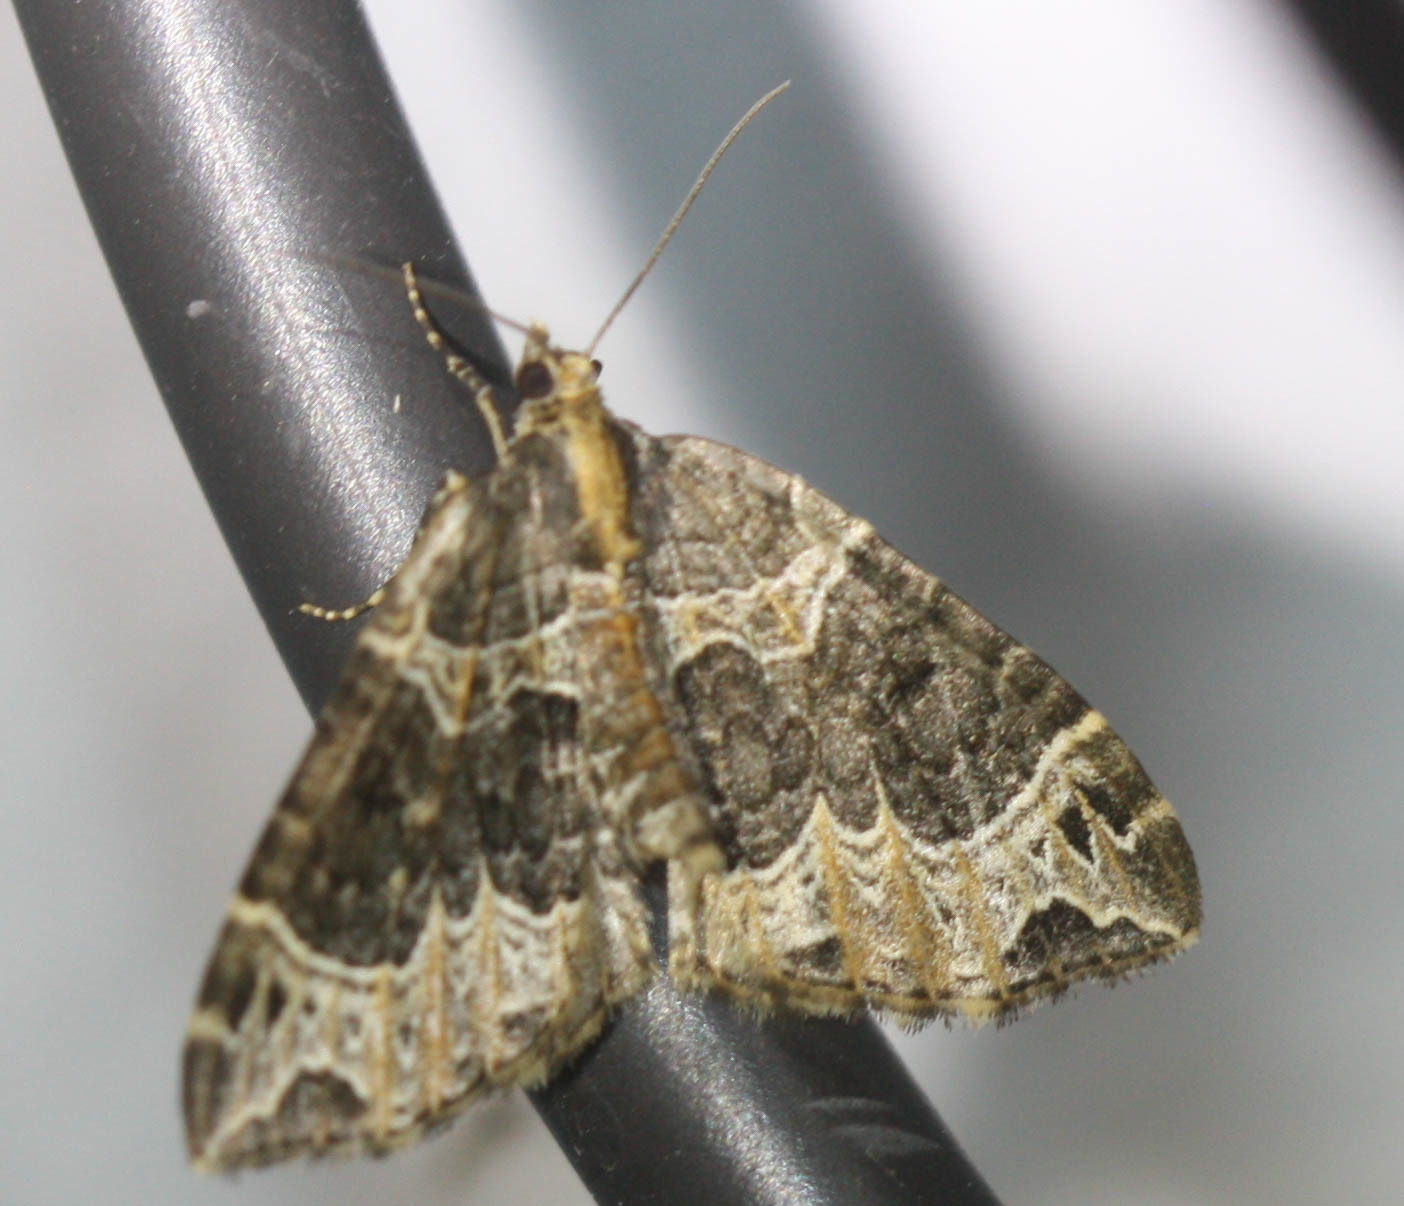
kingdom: Animalia
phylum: Arthropoda
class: Insecta
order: Lepidoptera
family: Geometridae
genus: Ecliptopera
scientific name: Ecliptopera silaceata
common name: Small phoenix
